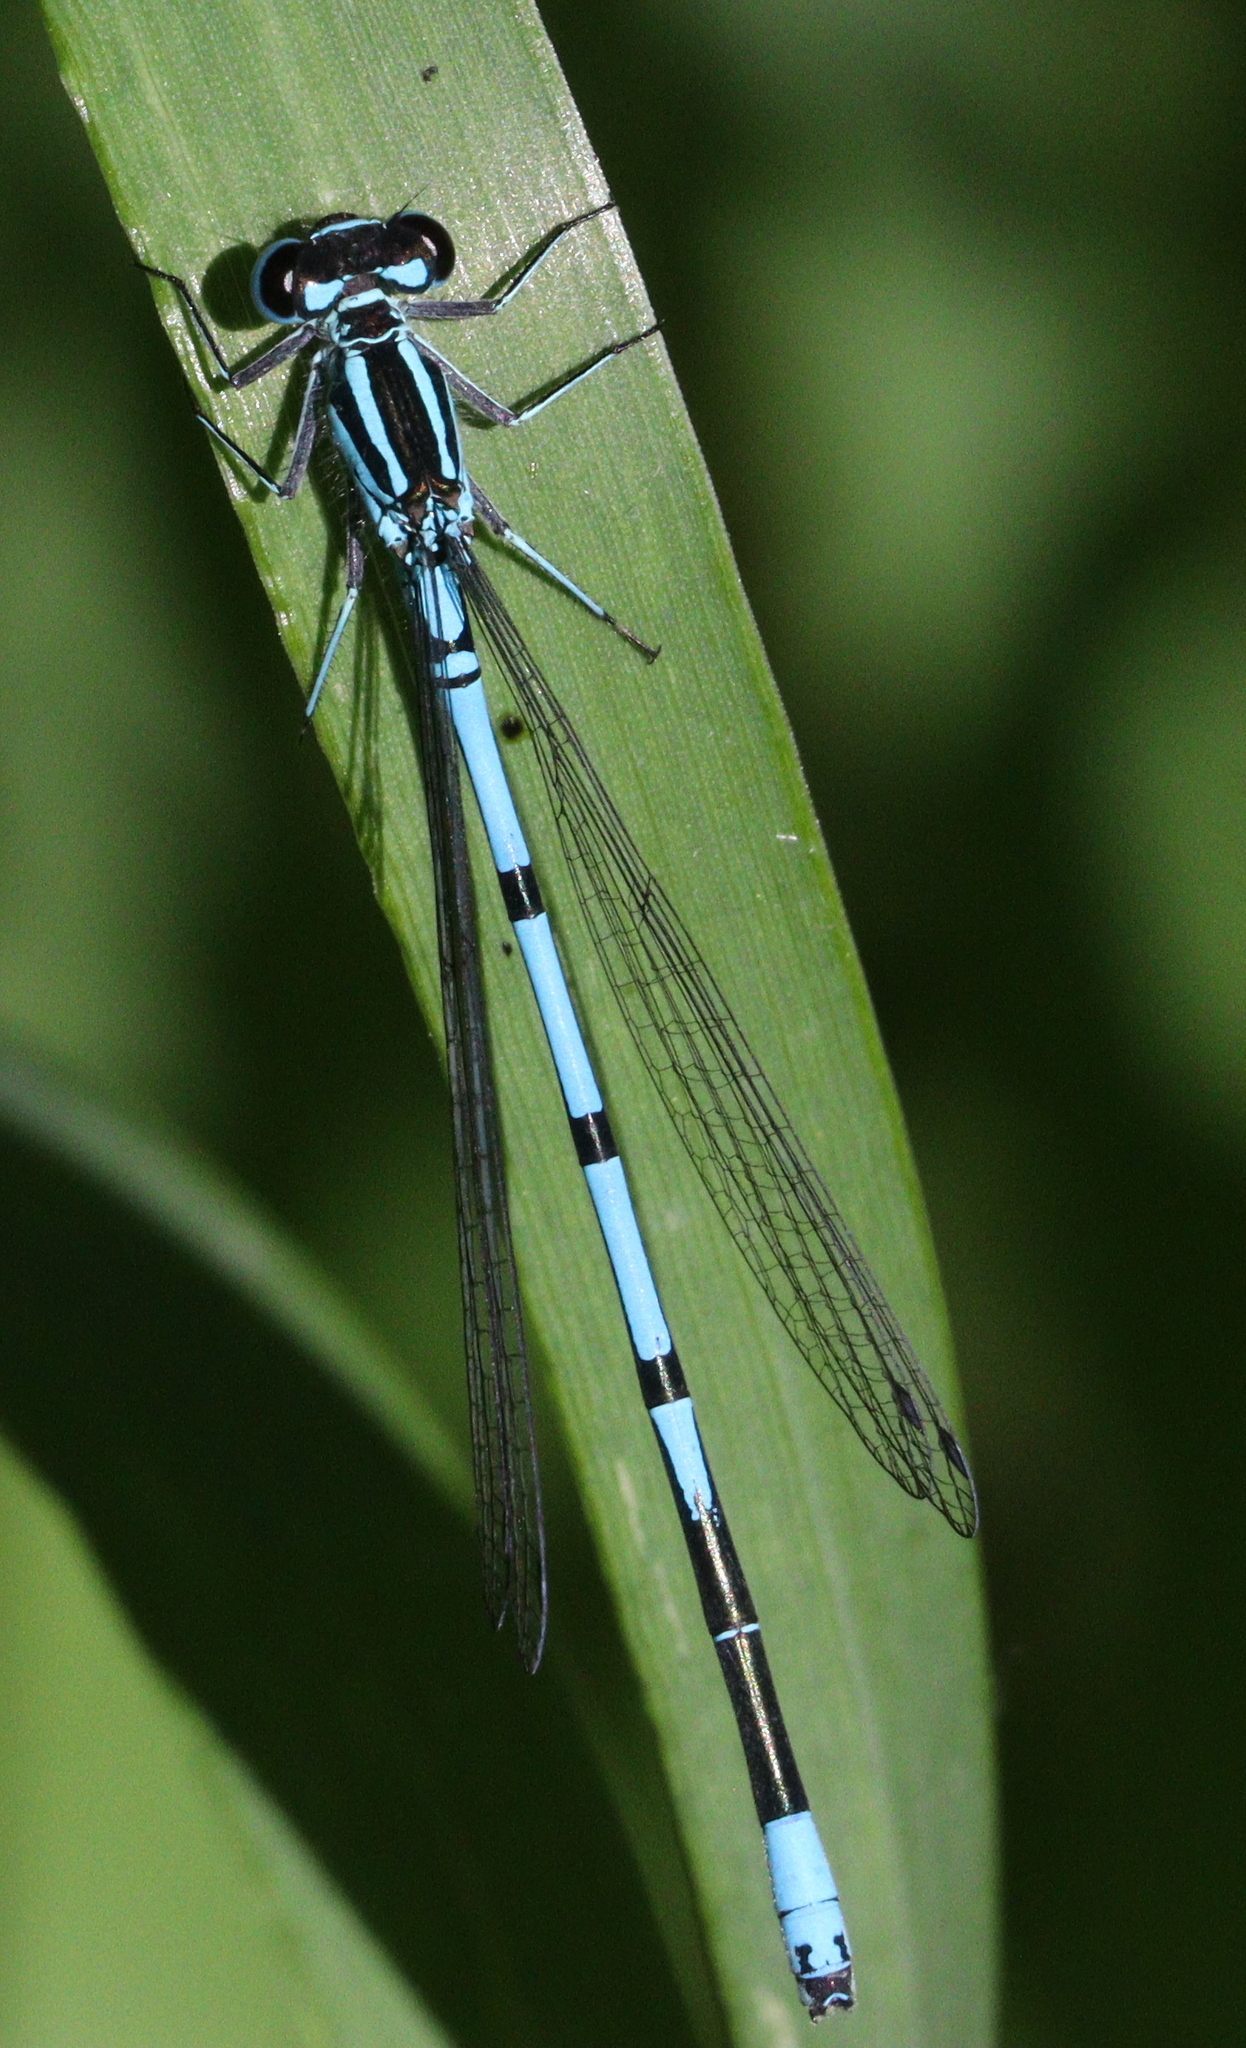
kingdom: Animalia
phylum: Arthropoda
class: Insecta
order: Odonata
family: Coenagrionidae
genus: Coenagrion
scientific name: Coenagrion puella
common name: Azure damselfly
